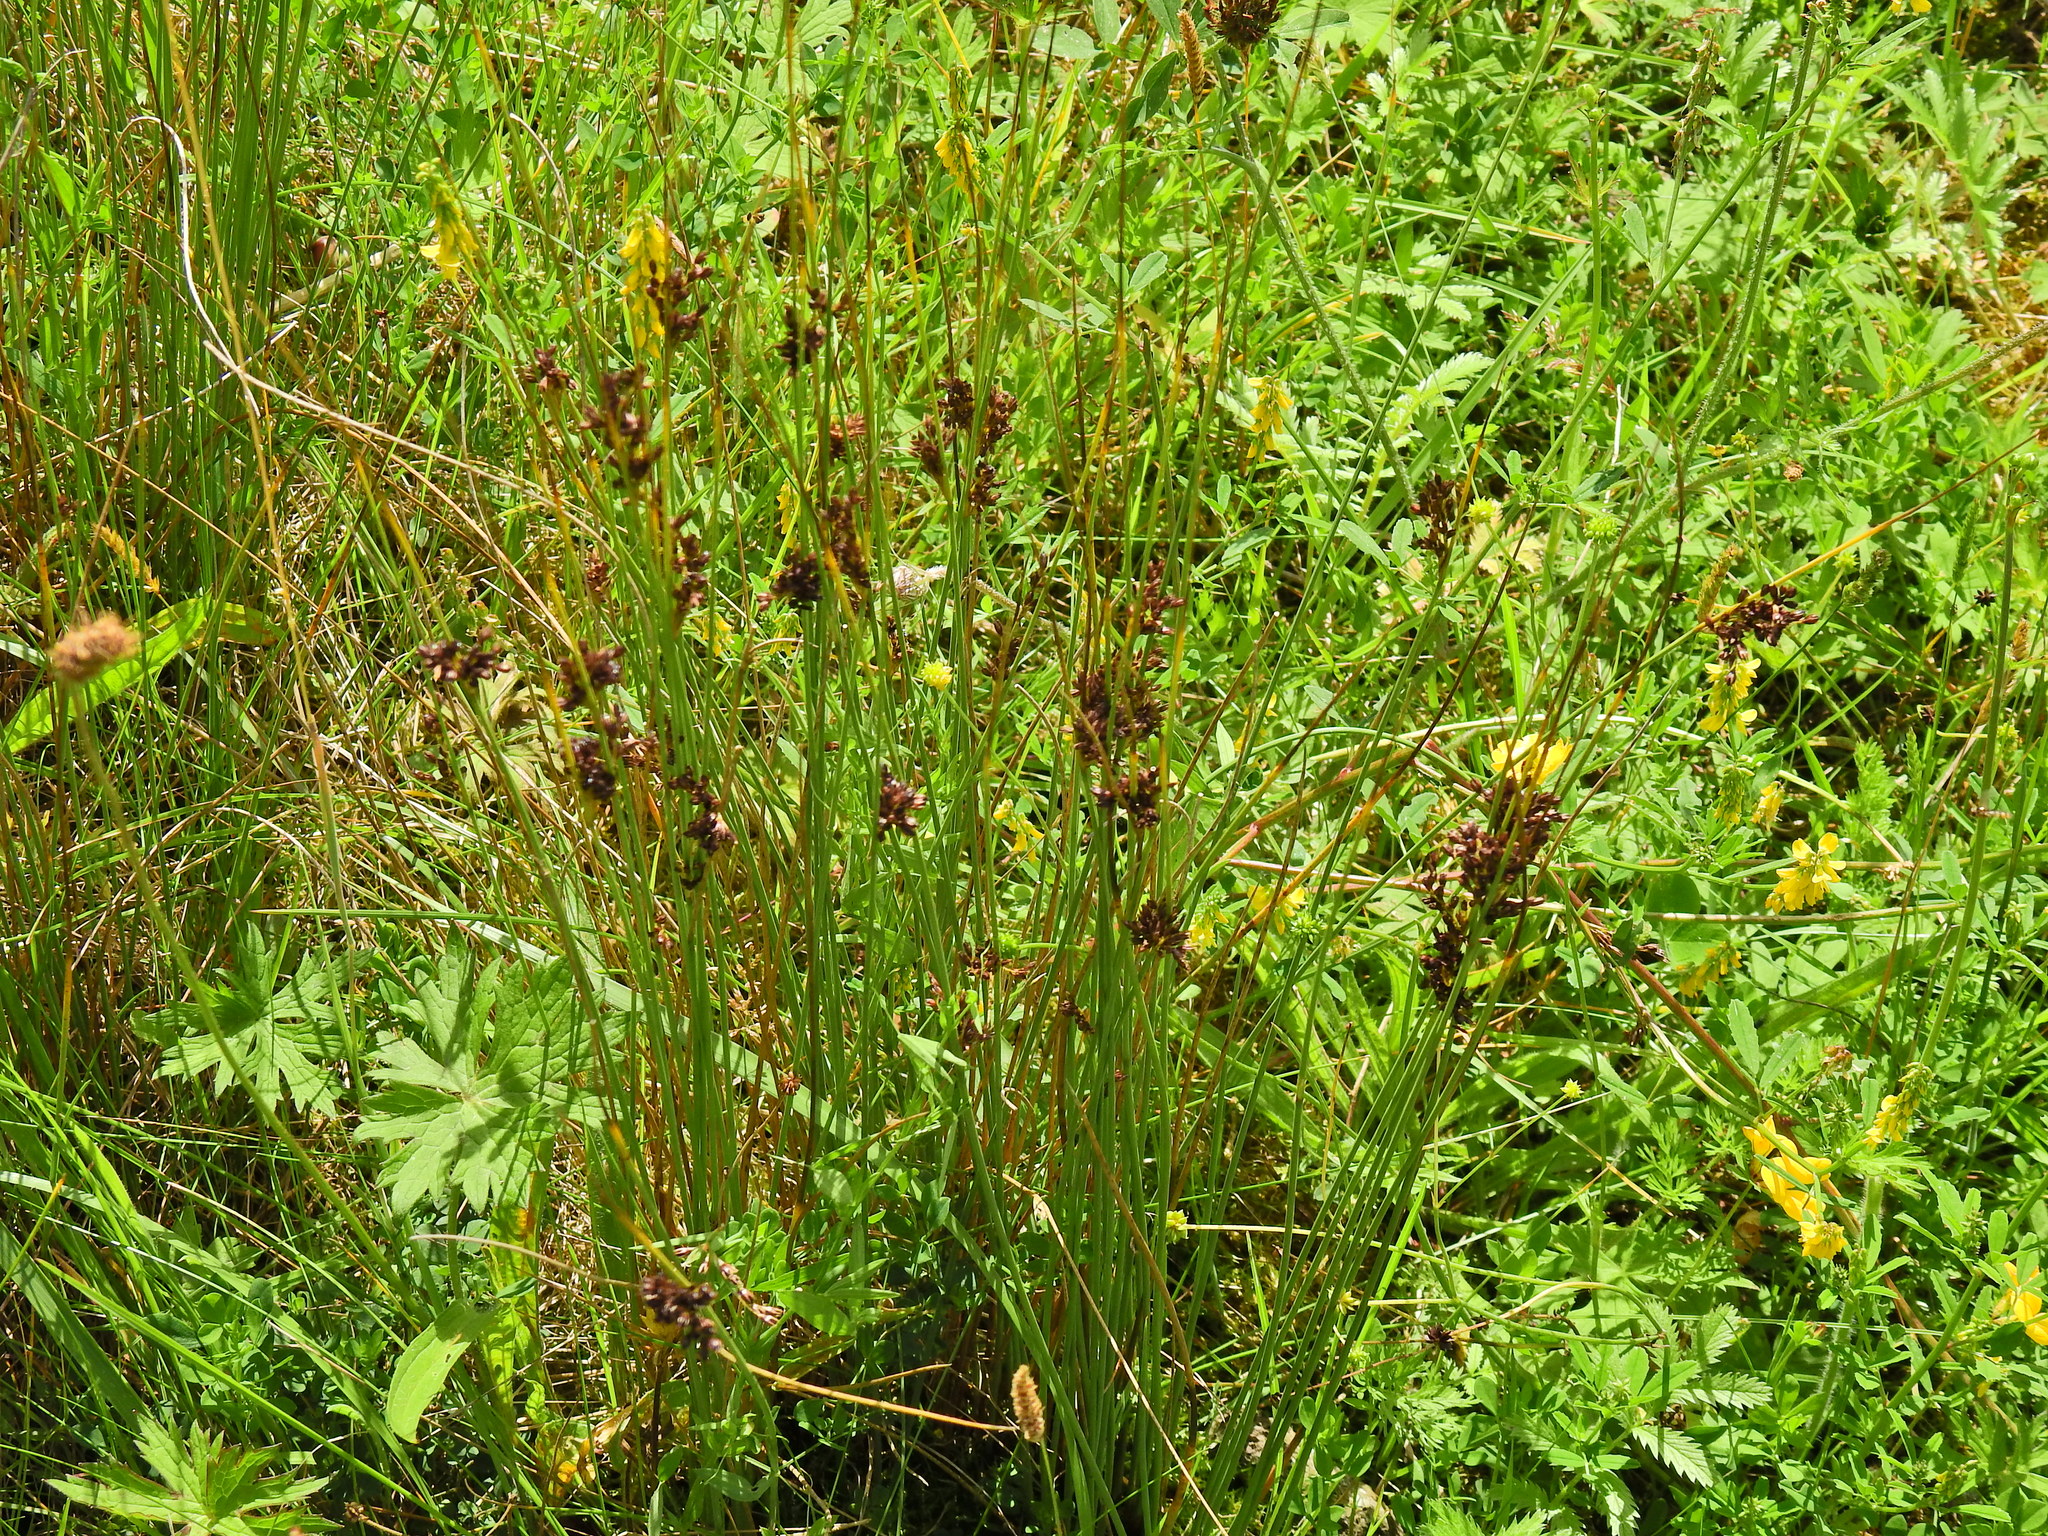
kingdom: Plantae
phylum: Tracheophyta
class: Liliopsida
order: Poales
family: Juncaceae
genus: Juncus
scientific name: Juncus effusus
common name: Soft rush
